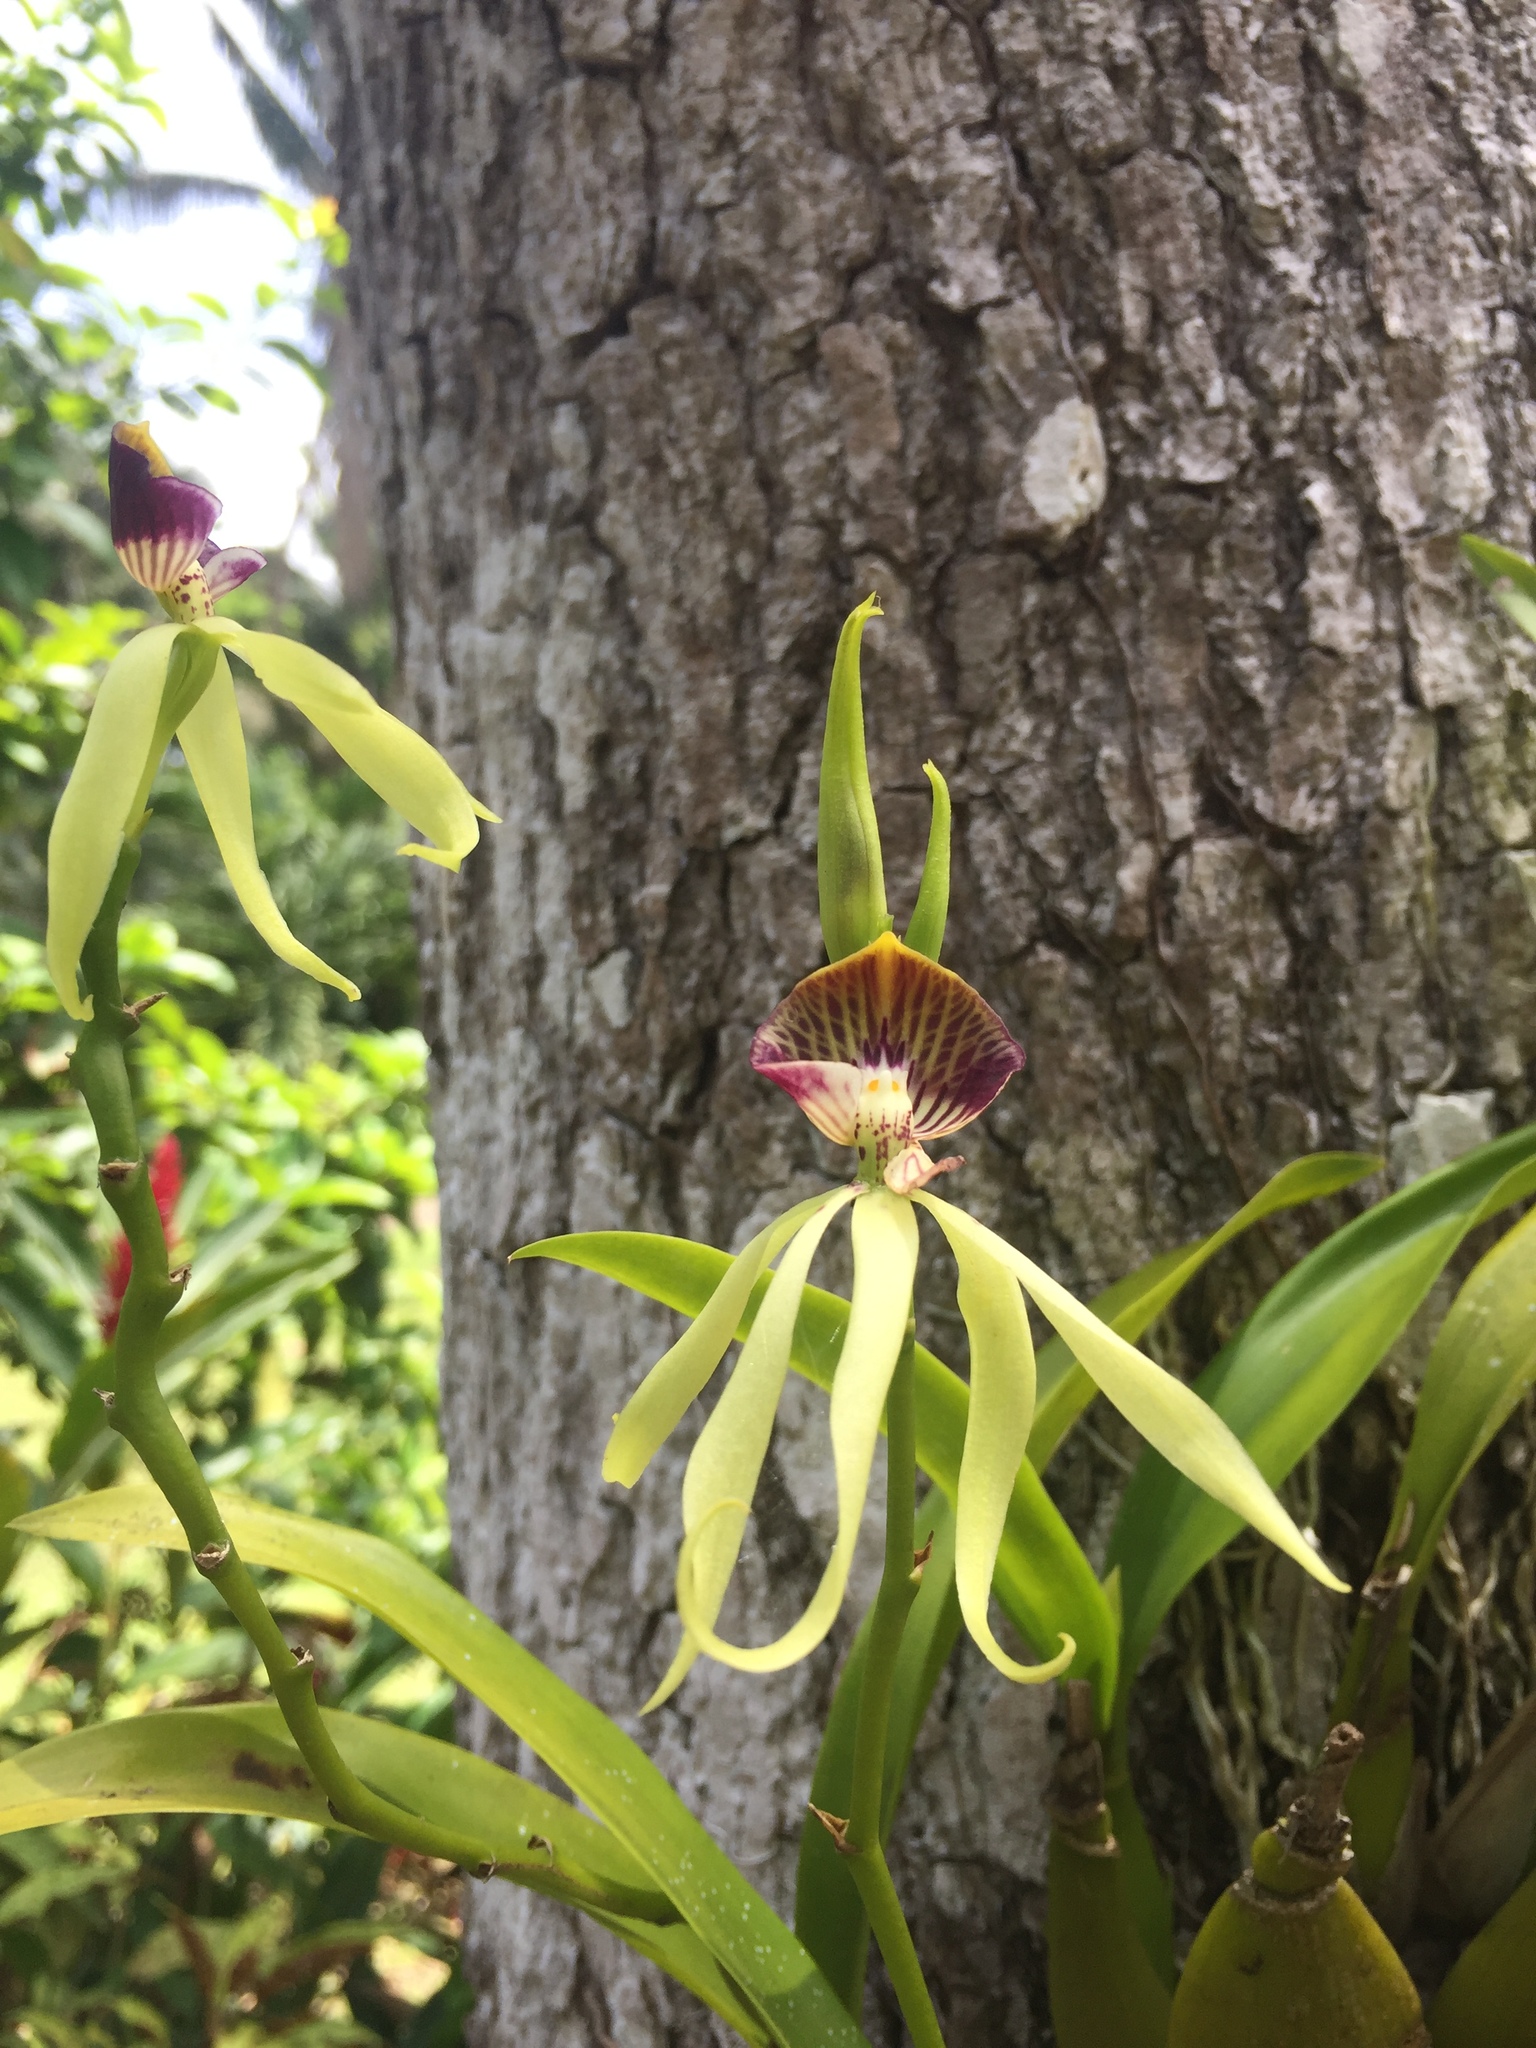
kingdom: Plantae
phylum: Tracheophyta
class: Liliopsida
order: Asparagales
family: Orchidaceae
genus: Prosthechea
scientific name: Prosthechea cochleata
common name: Clamshell orchid
